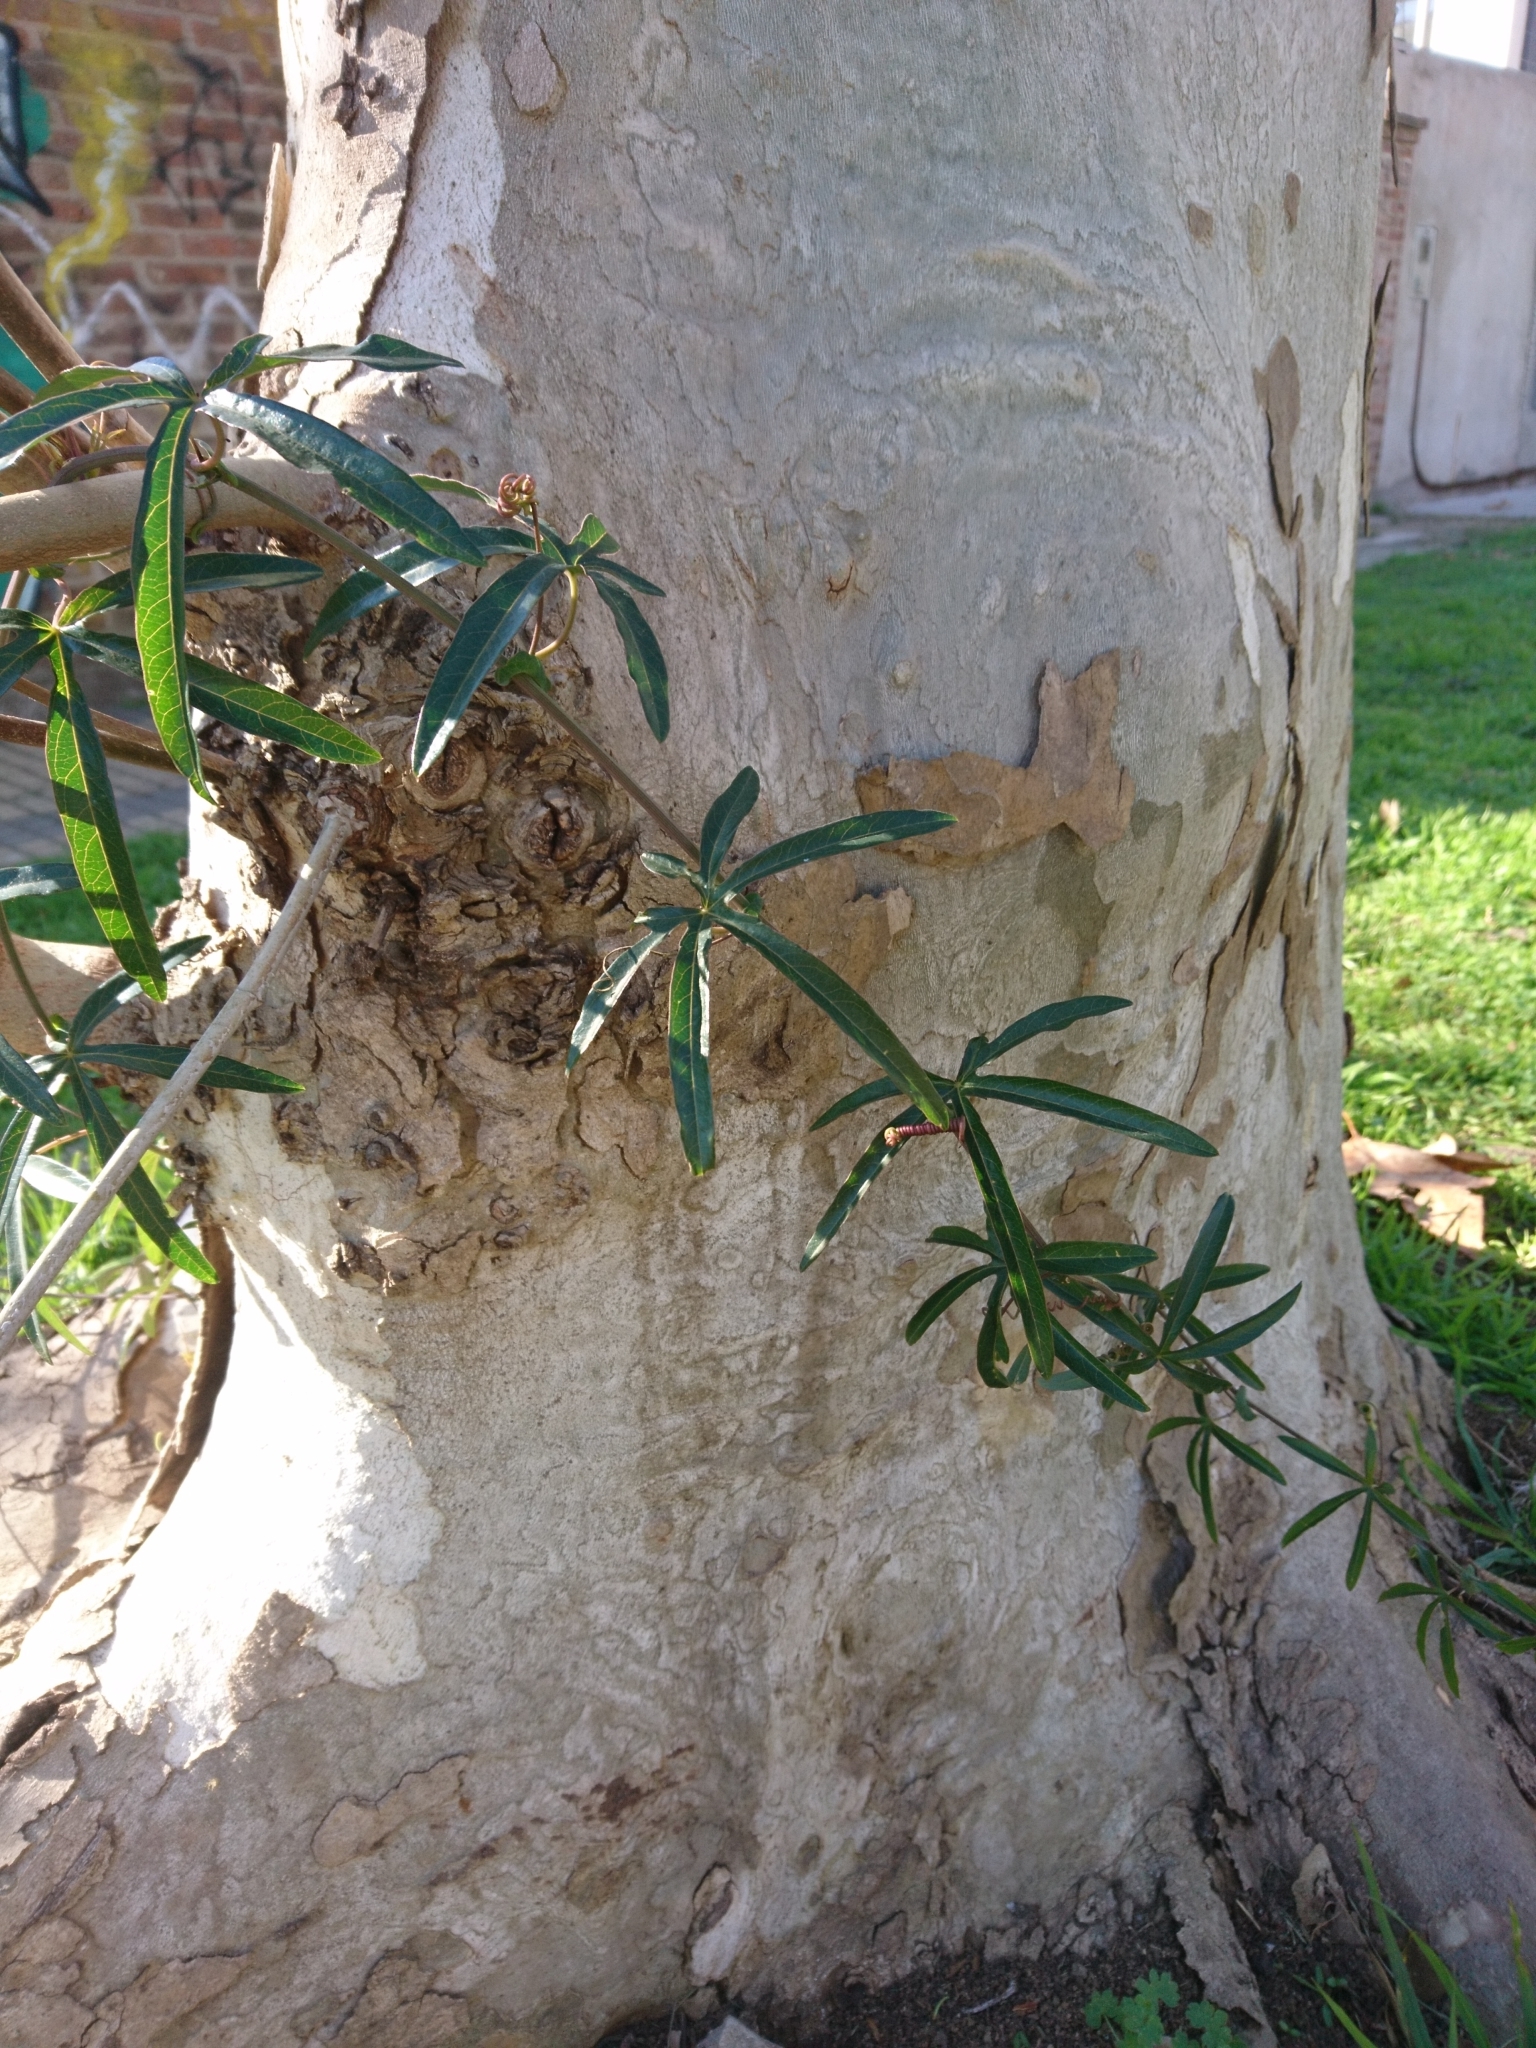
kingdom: Plantae
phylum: Tracheophyta
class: Magnoliopsida
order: Malpighiales
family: Passifloraceae
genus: Passiflora
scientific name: Passiflora caerulea
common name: Blue passionflower
